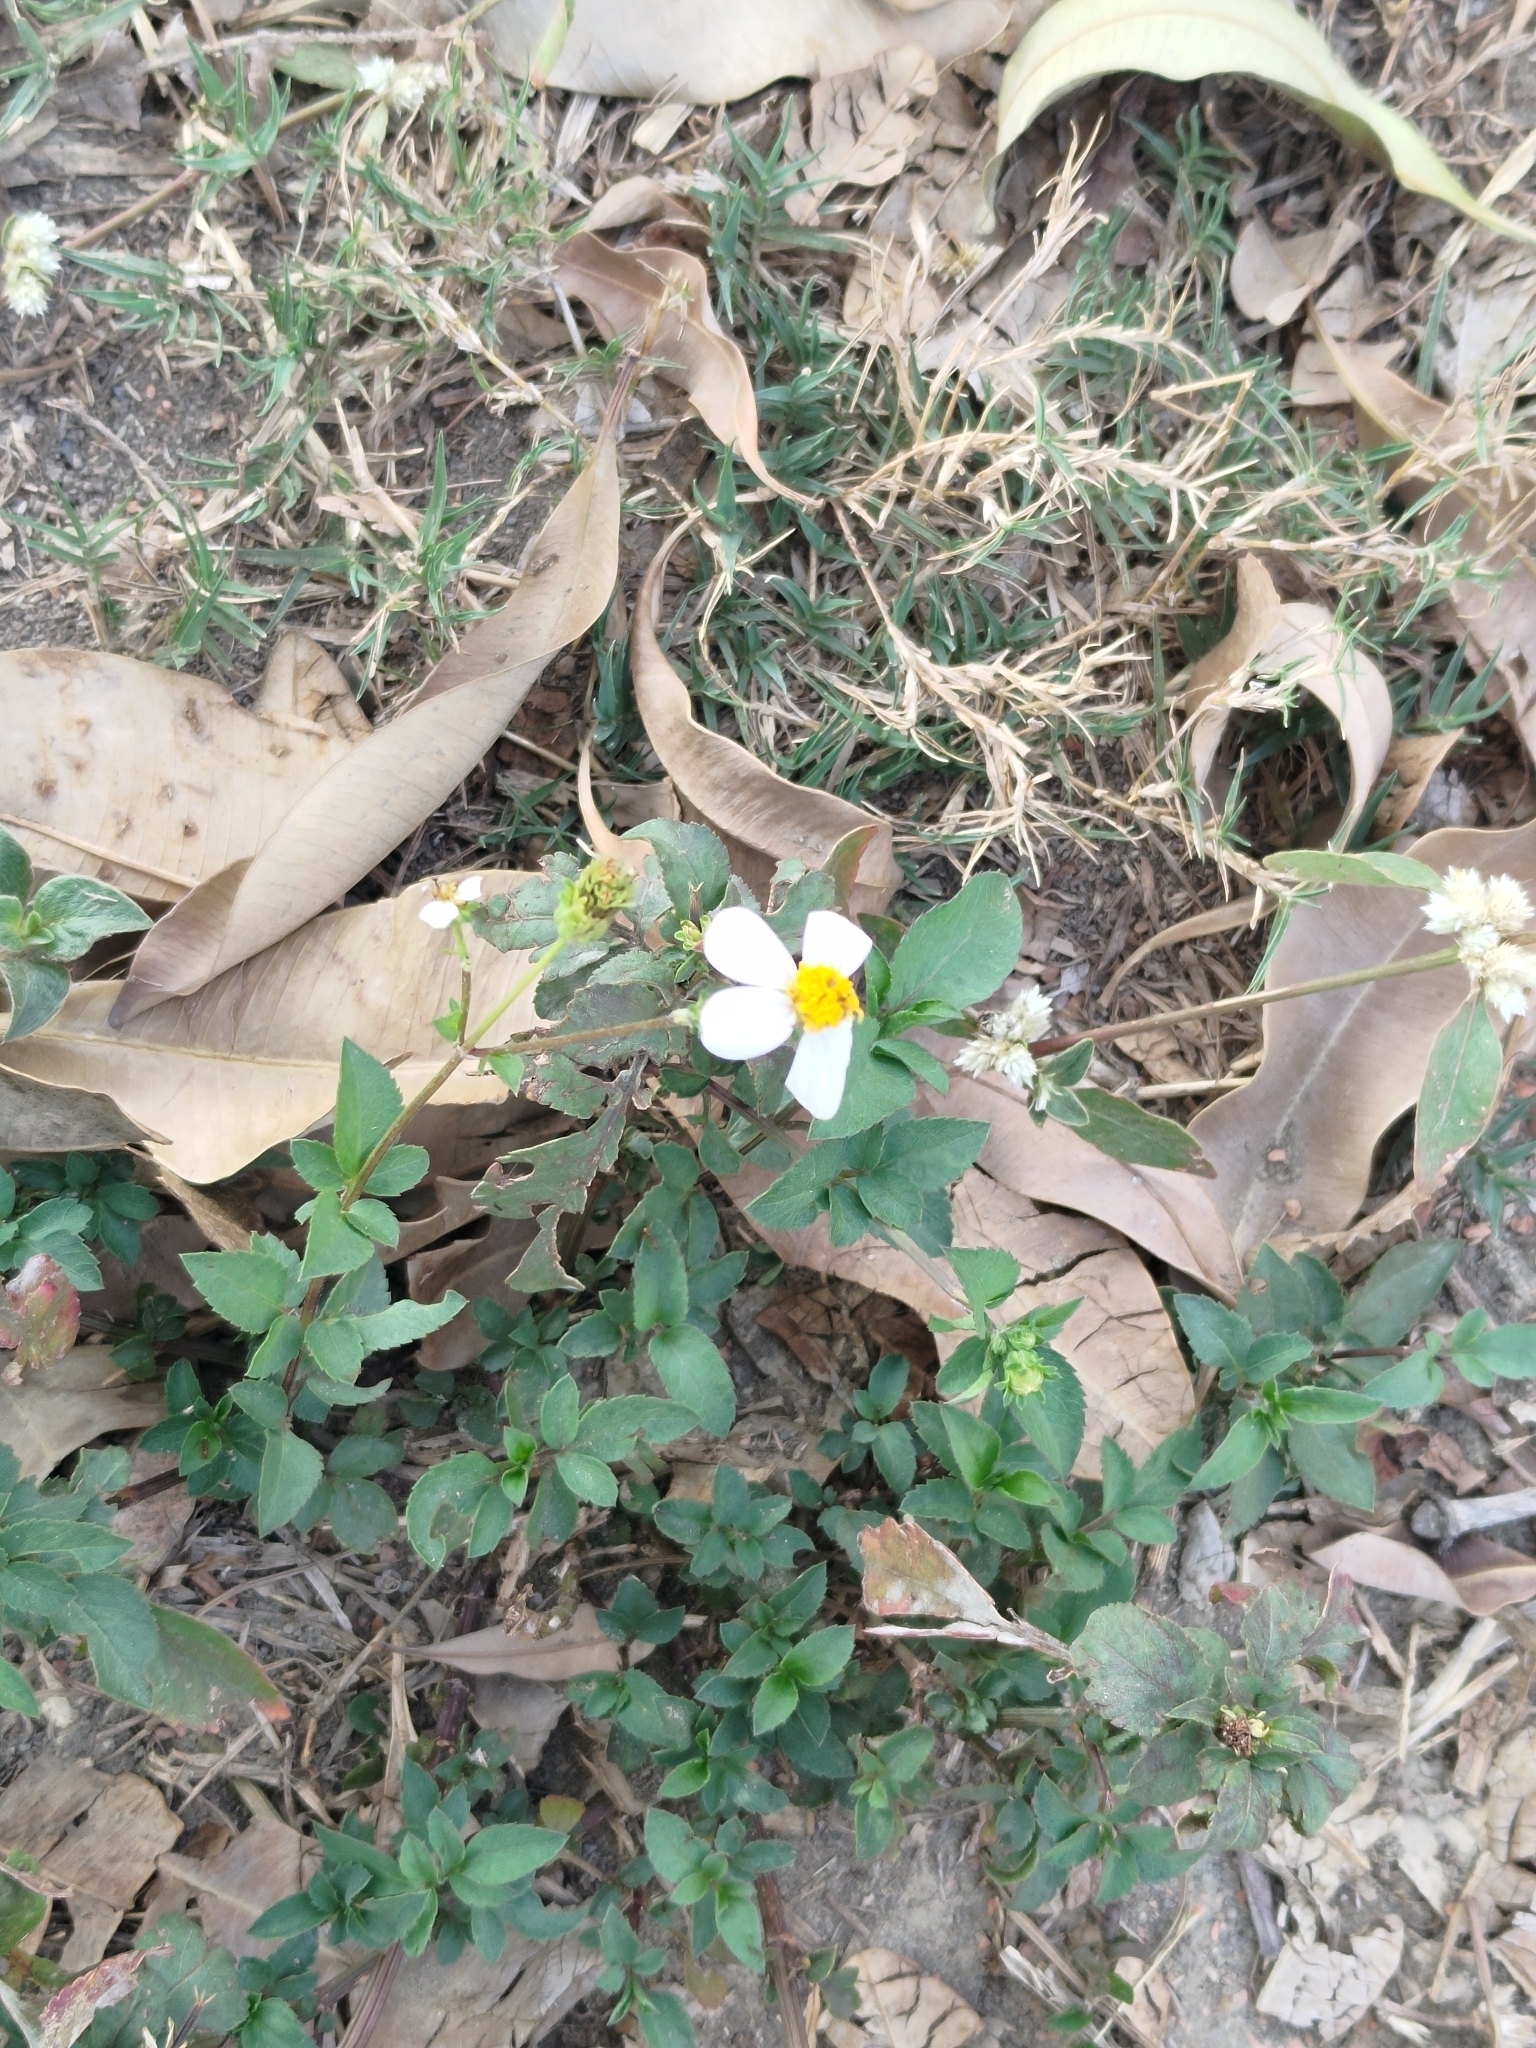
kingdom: Plantae
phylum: Tracheophyta
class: Magnoliopsida
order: Asterales
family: Asteraceae
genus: Bidens
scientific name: Bidens alba
